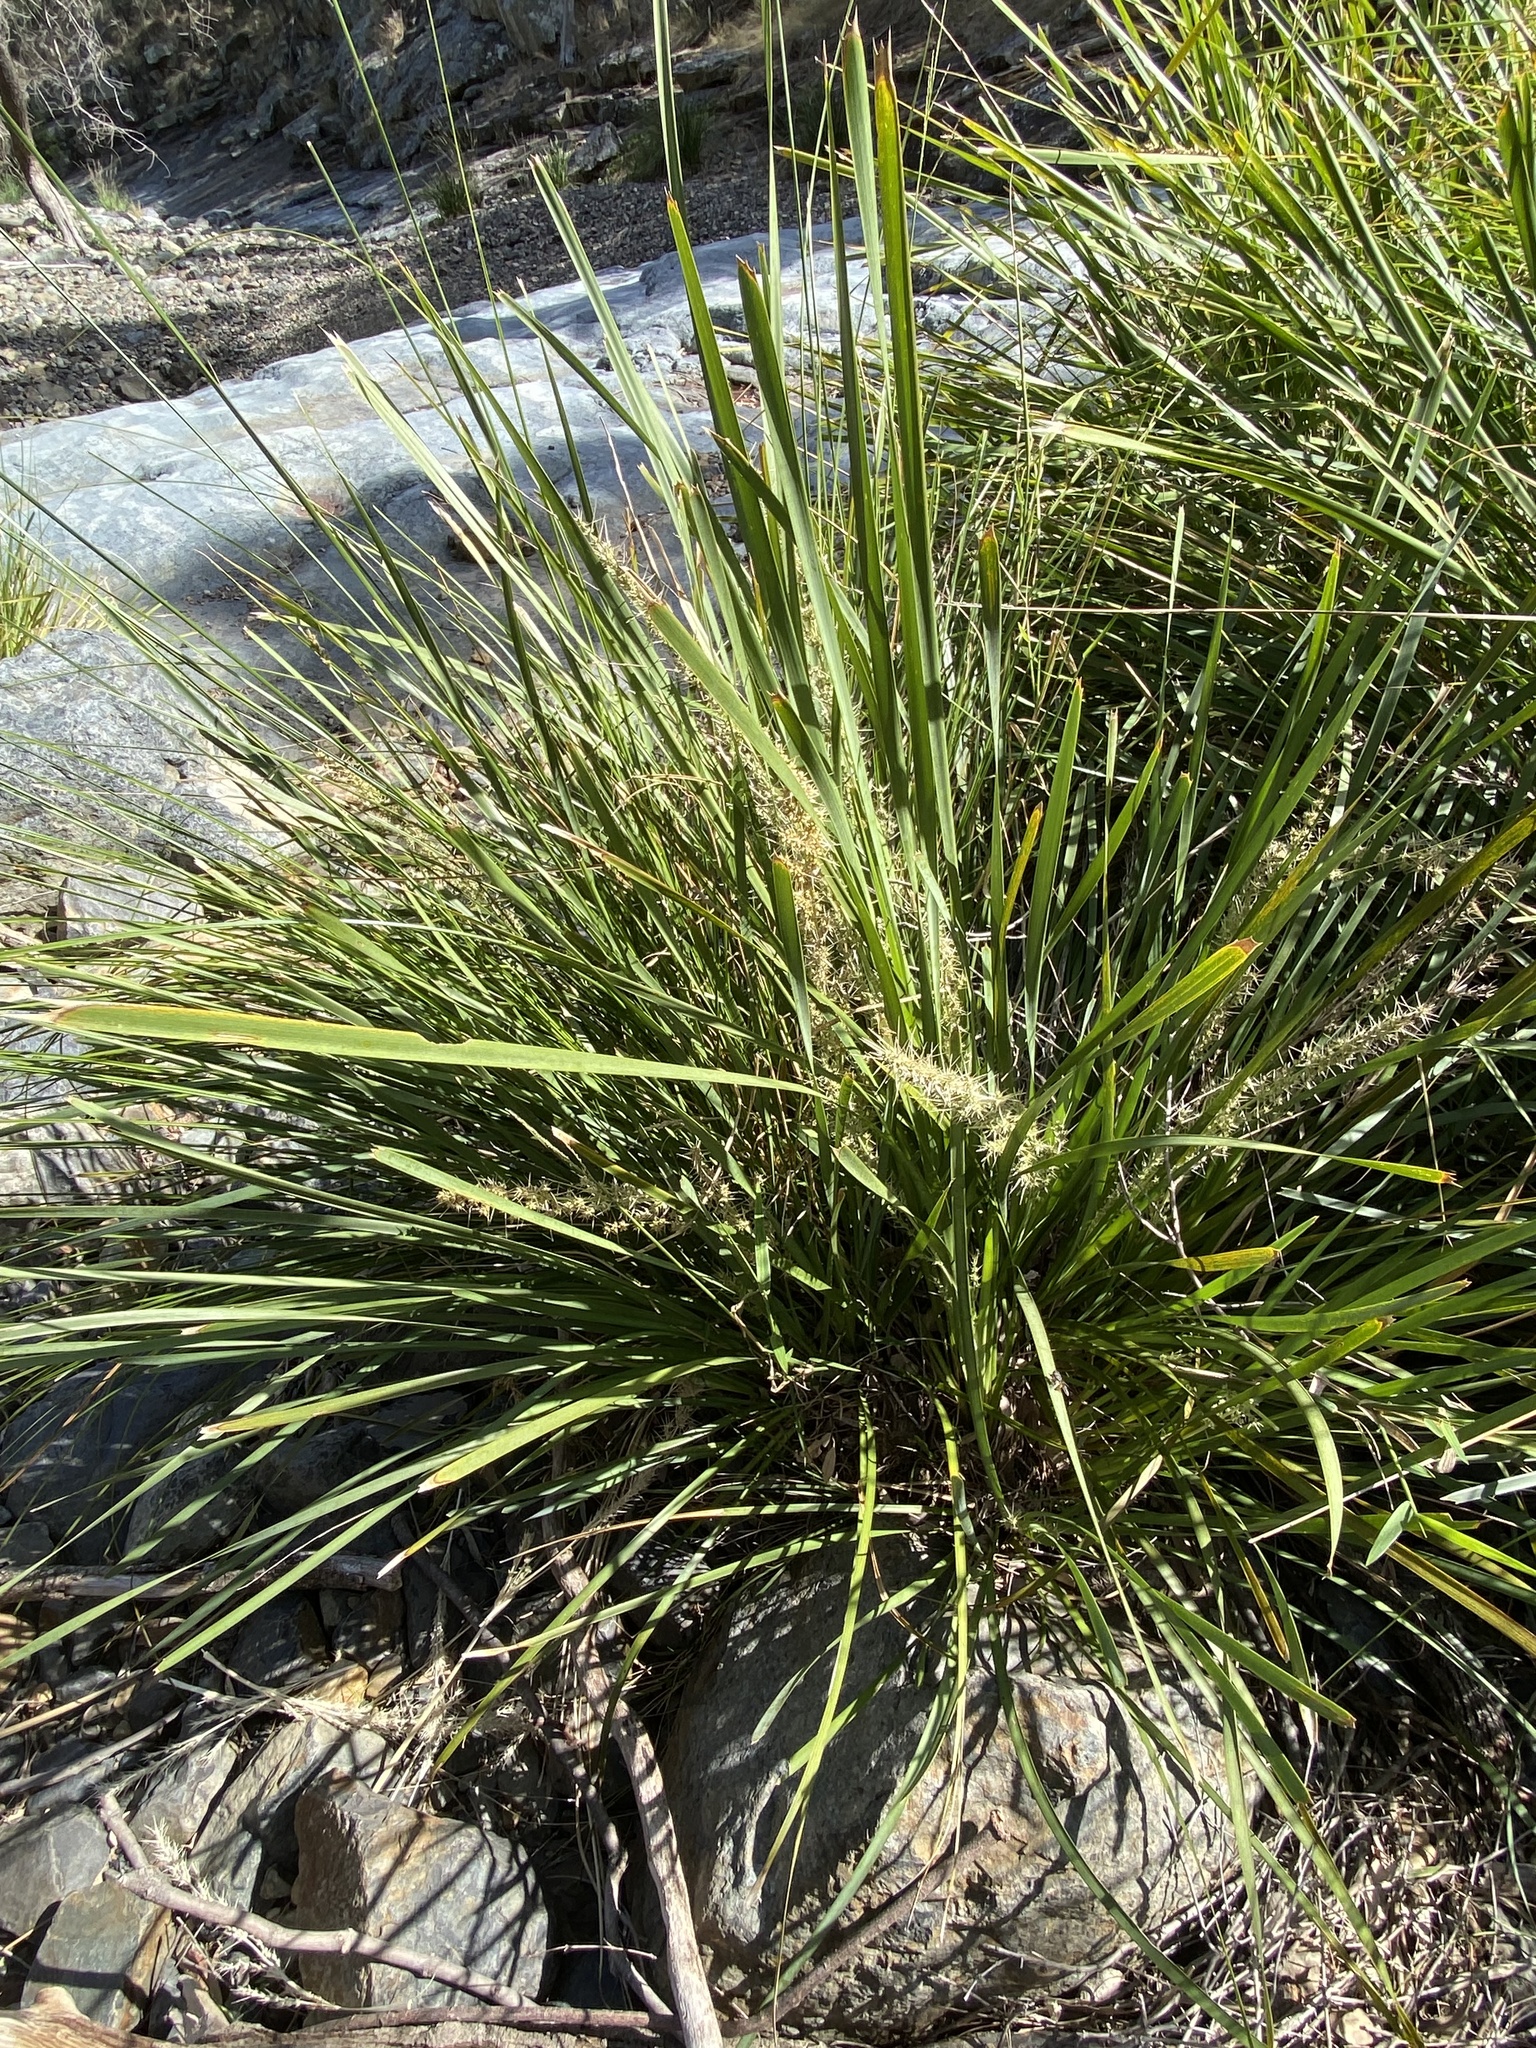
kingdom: Plantae
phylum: Tracheophyta
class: Liliopsida
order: Asparagales
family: Asparagaceae
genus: Lomandra
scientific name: Lomandra longifolia
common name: Longleaf mat-rush
